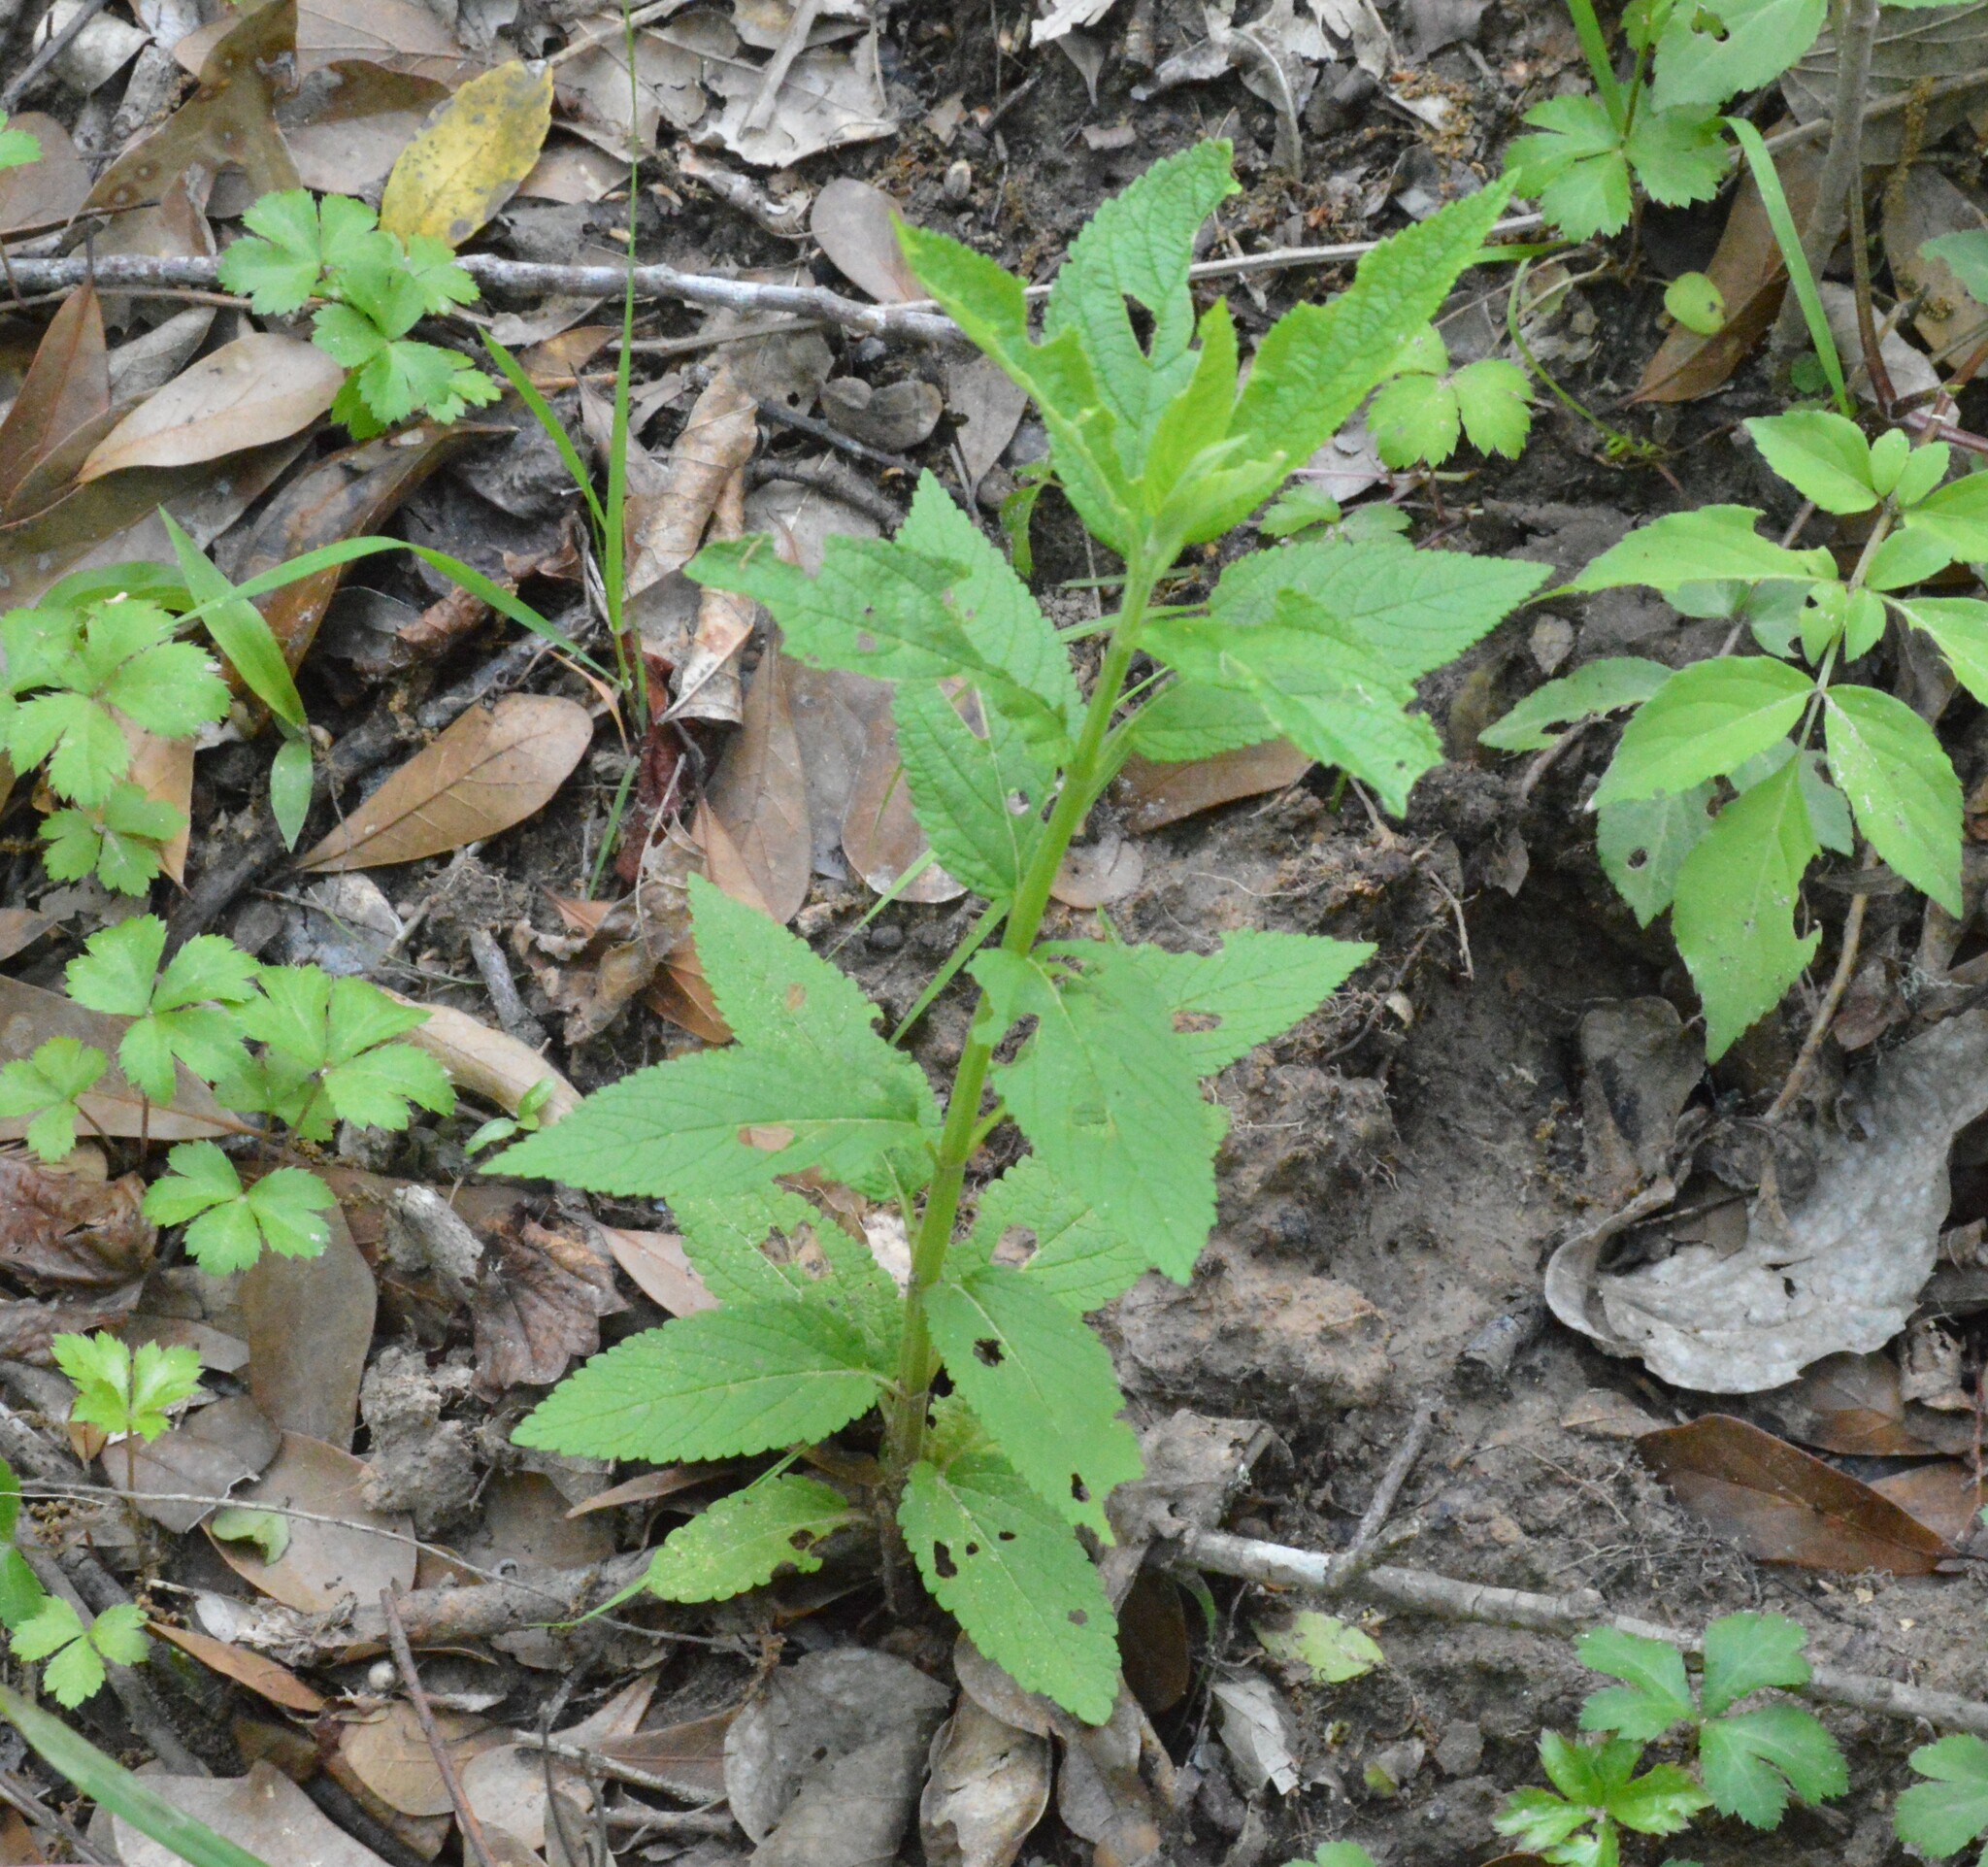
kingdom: Plantae
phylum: Tracheophyta
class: Magnoliopsida
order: Lamiales
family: Lamiaceae
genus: Teucrium
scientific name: Teucrium canadense
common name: American germander
